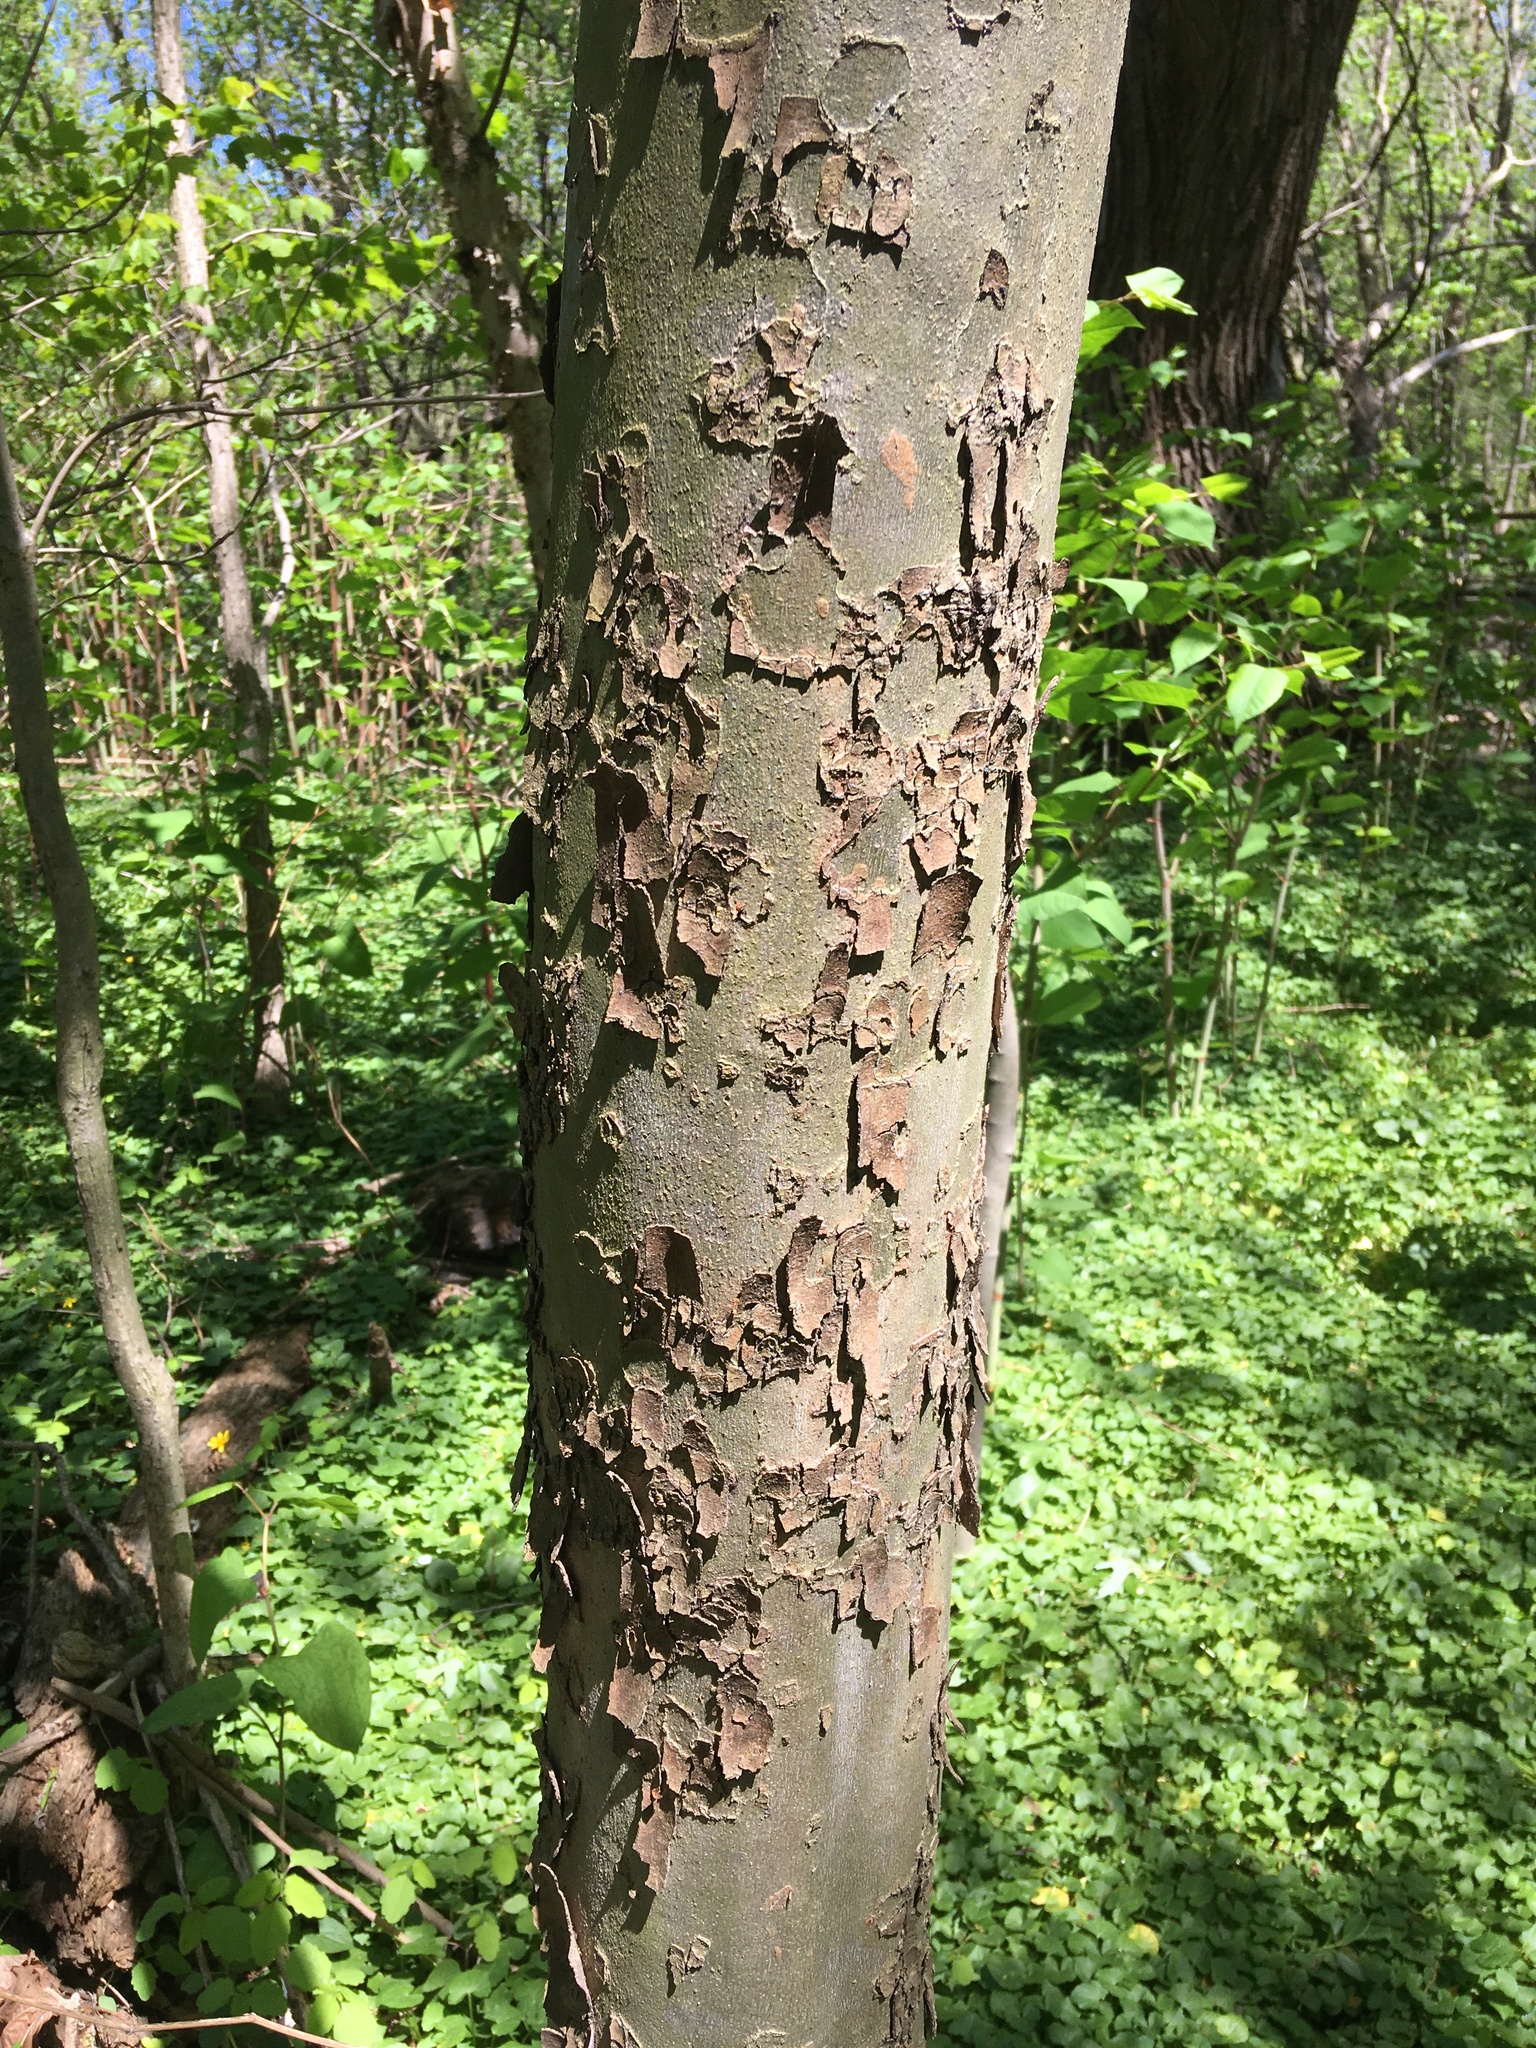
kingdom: Plantae
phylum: Tracheophyta
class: Magnoliopsida
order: Proteales
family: Platanaceae
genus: Platanus
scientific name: Platanus occidentalis
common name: American sycamore
